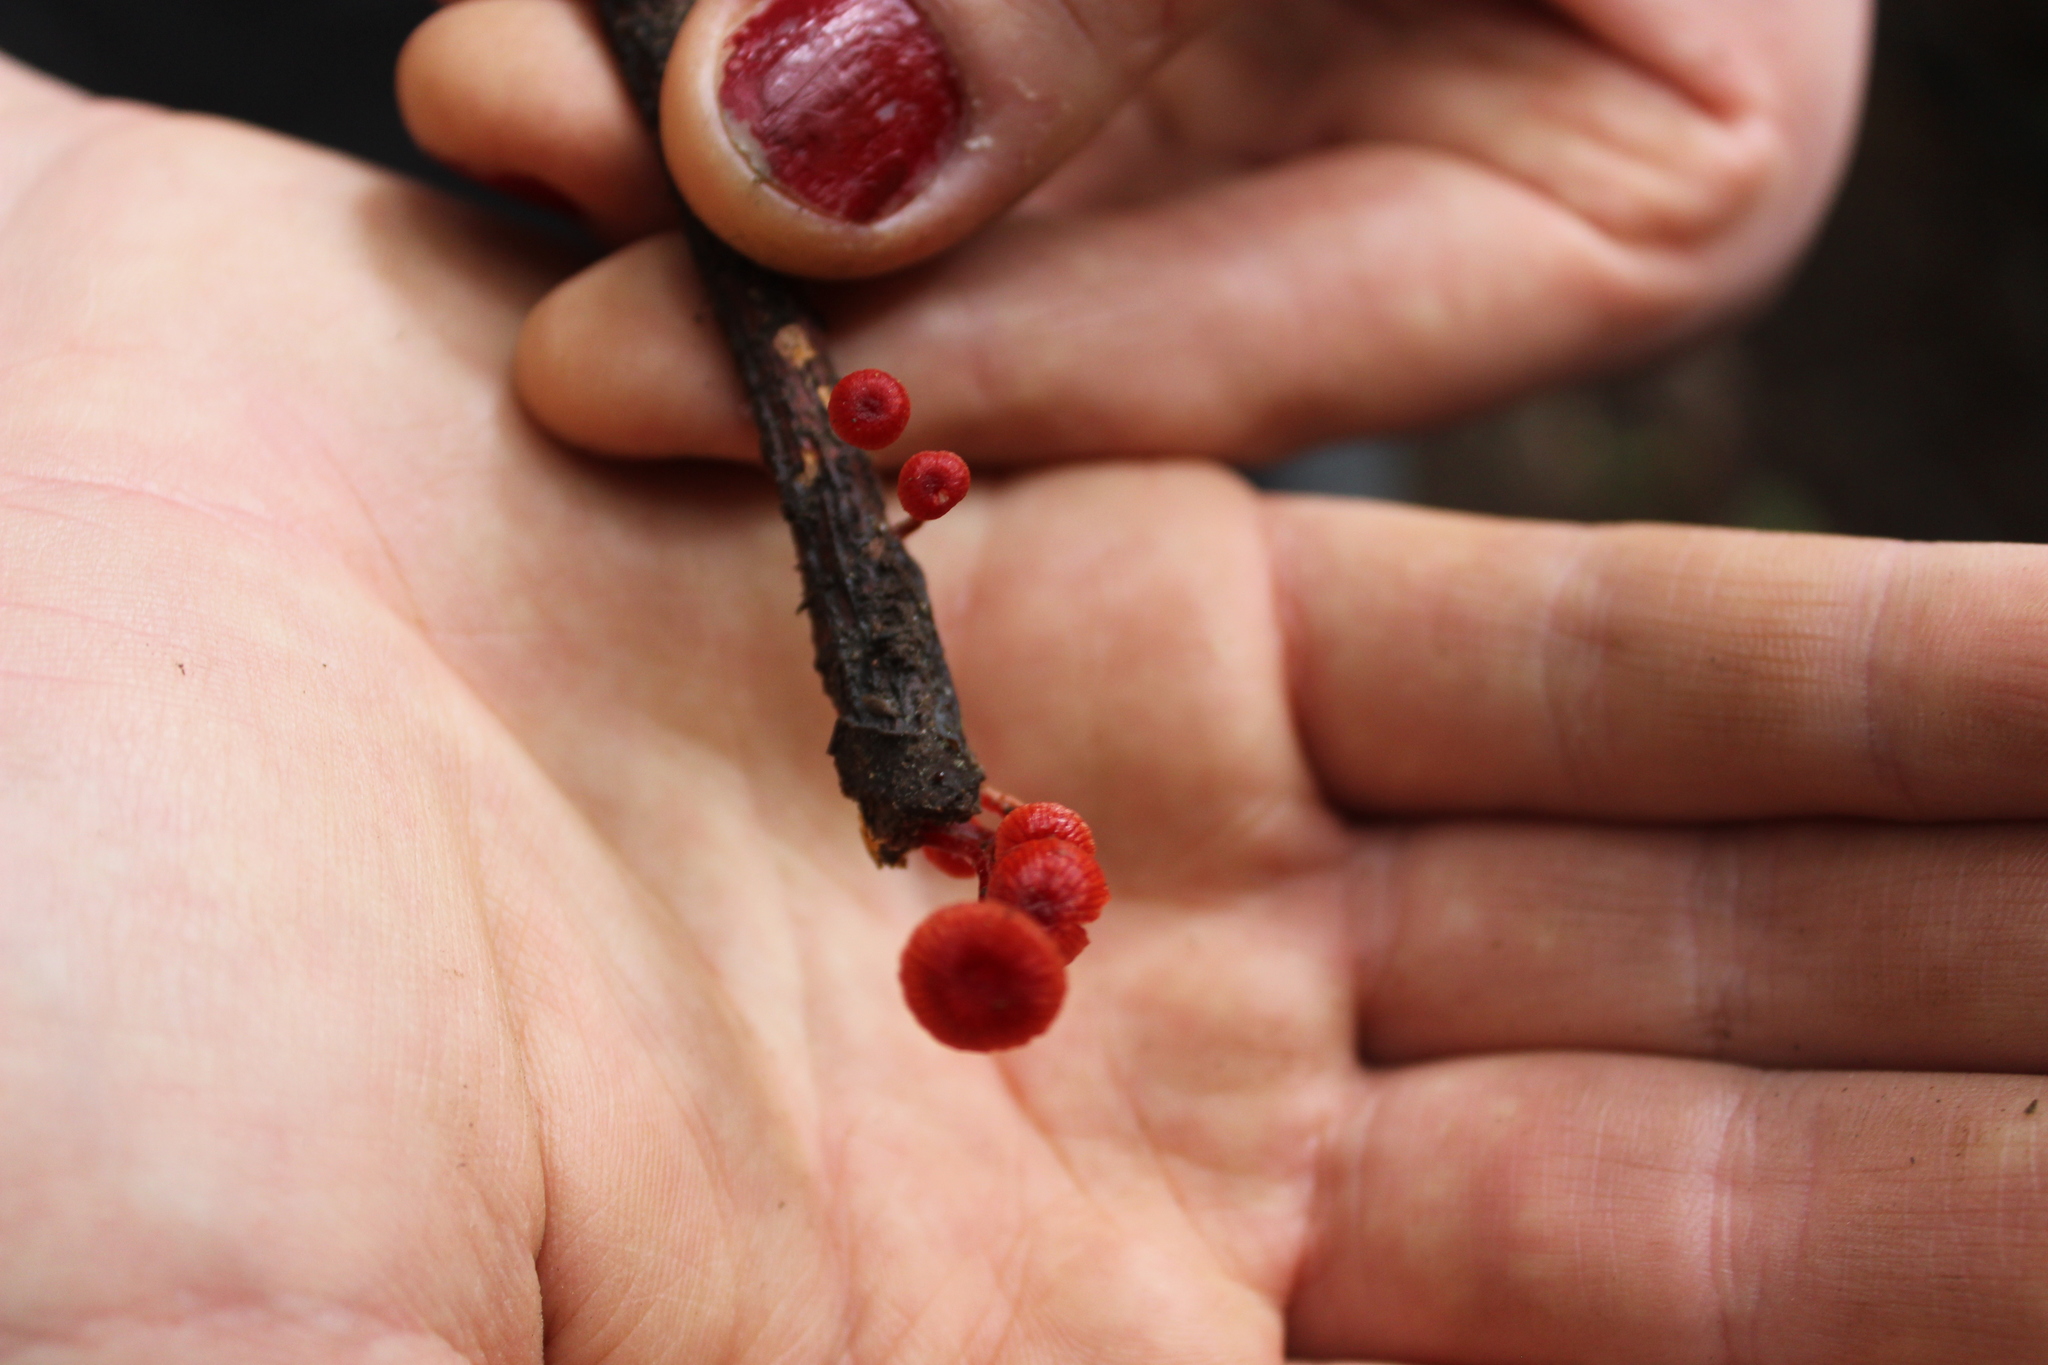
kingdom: Fungi
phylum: Basidiomycota
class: Agaricomycetes
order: Agaricales
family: Mycenaceae
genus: Cruentomycena
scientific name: Cruentomycena viscidocruenta
